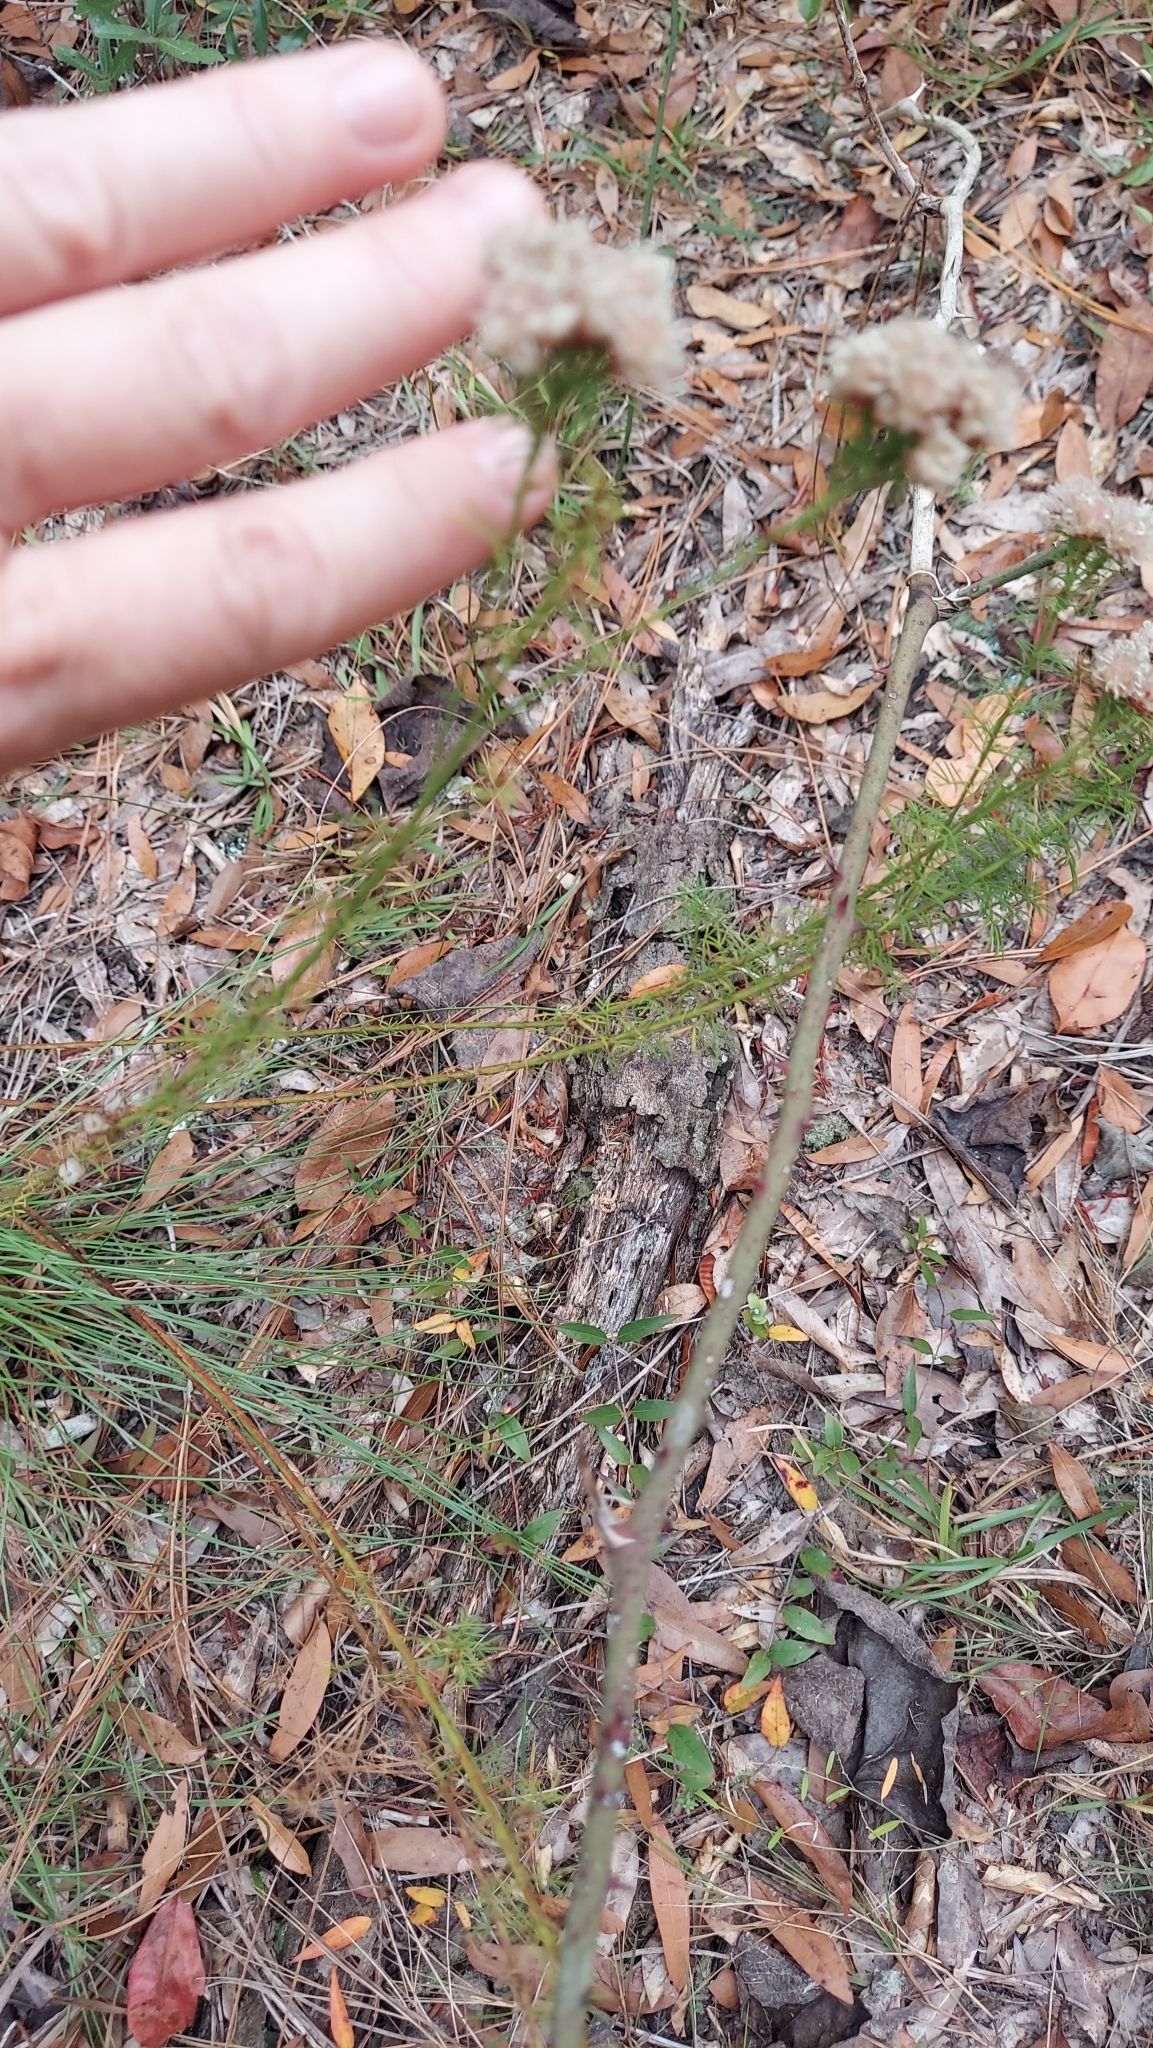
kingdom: Plantae
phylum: Tracheophyta
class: Magnoliopsida
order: Fabales
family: Fabaceae
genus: Dalea
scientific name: Dalea pinnata
